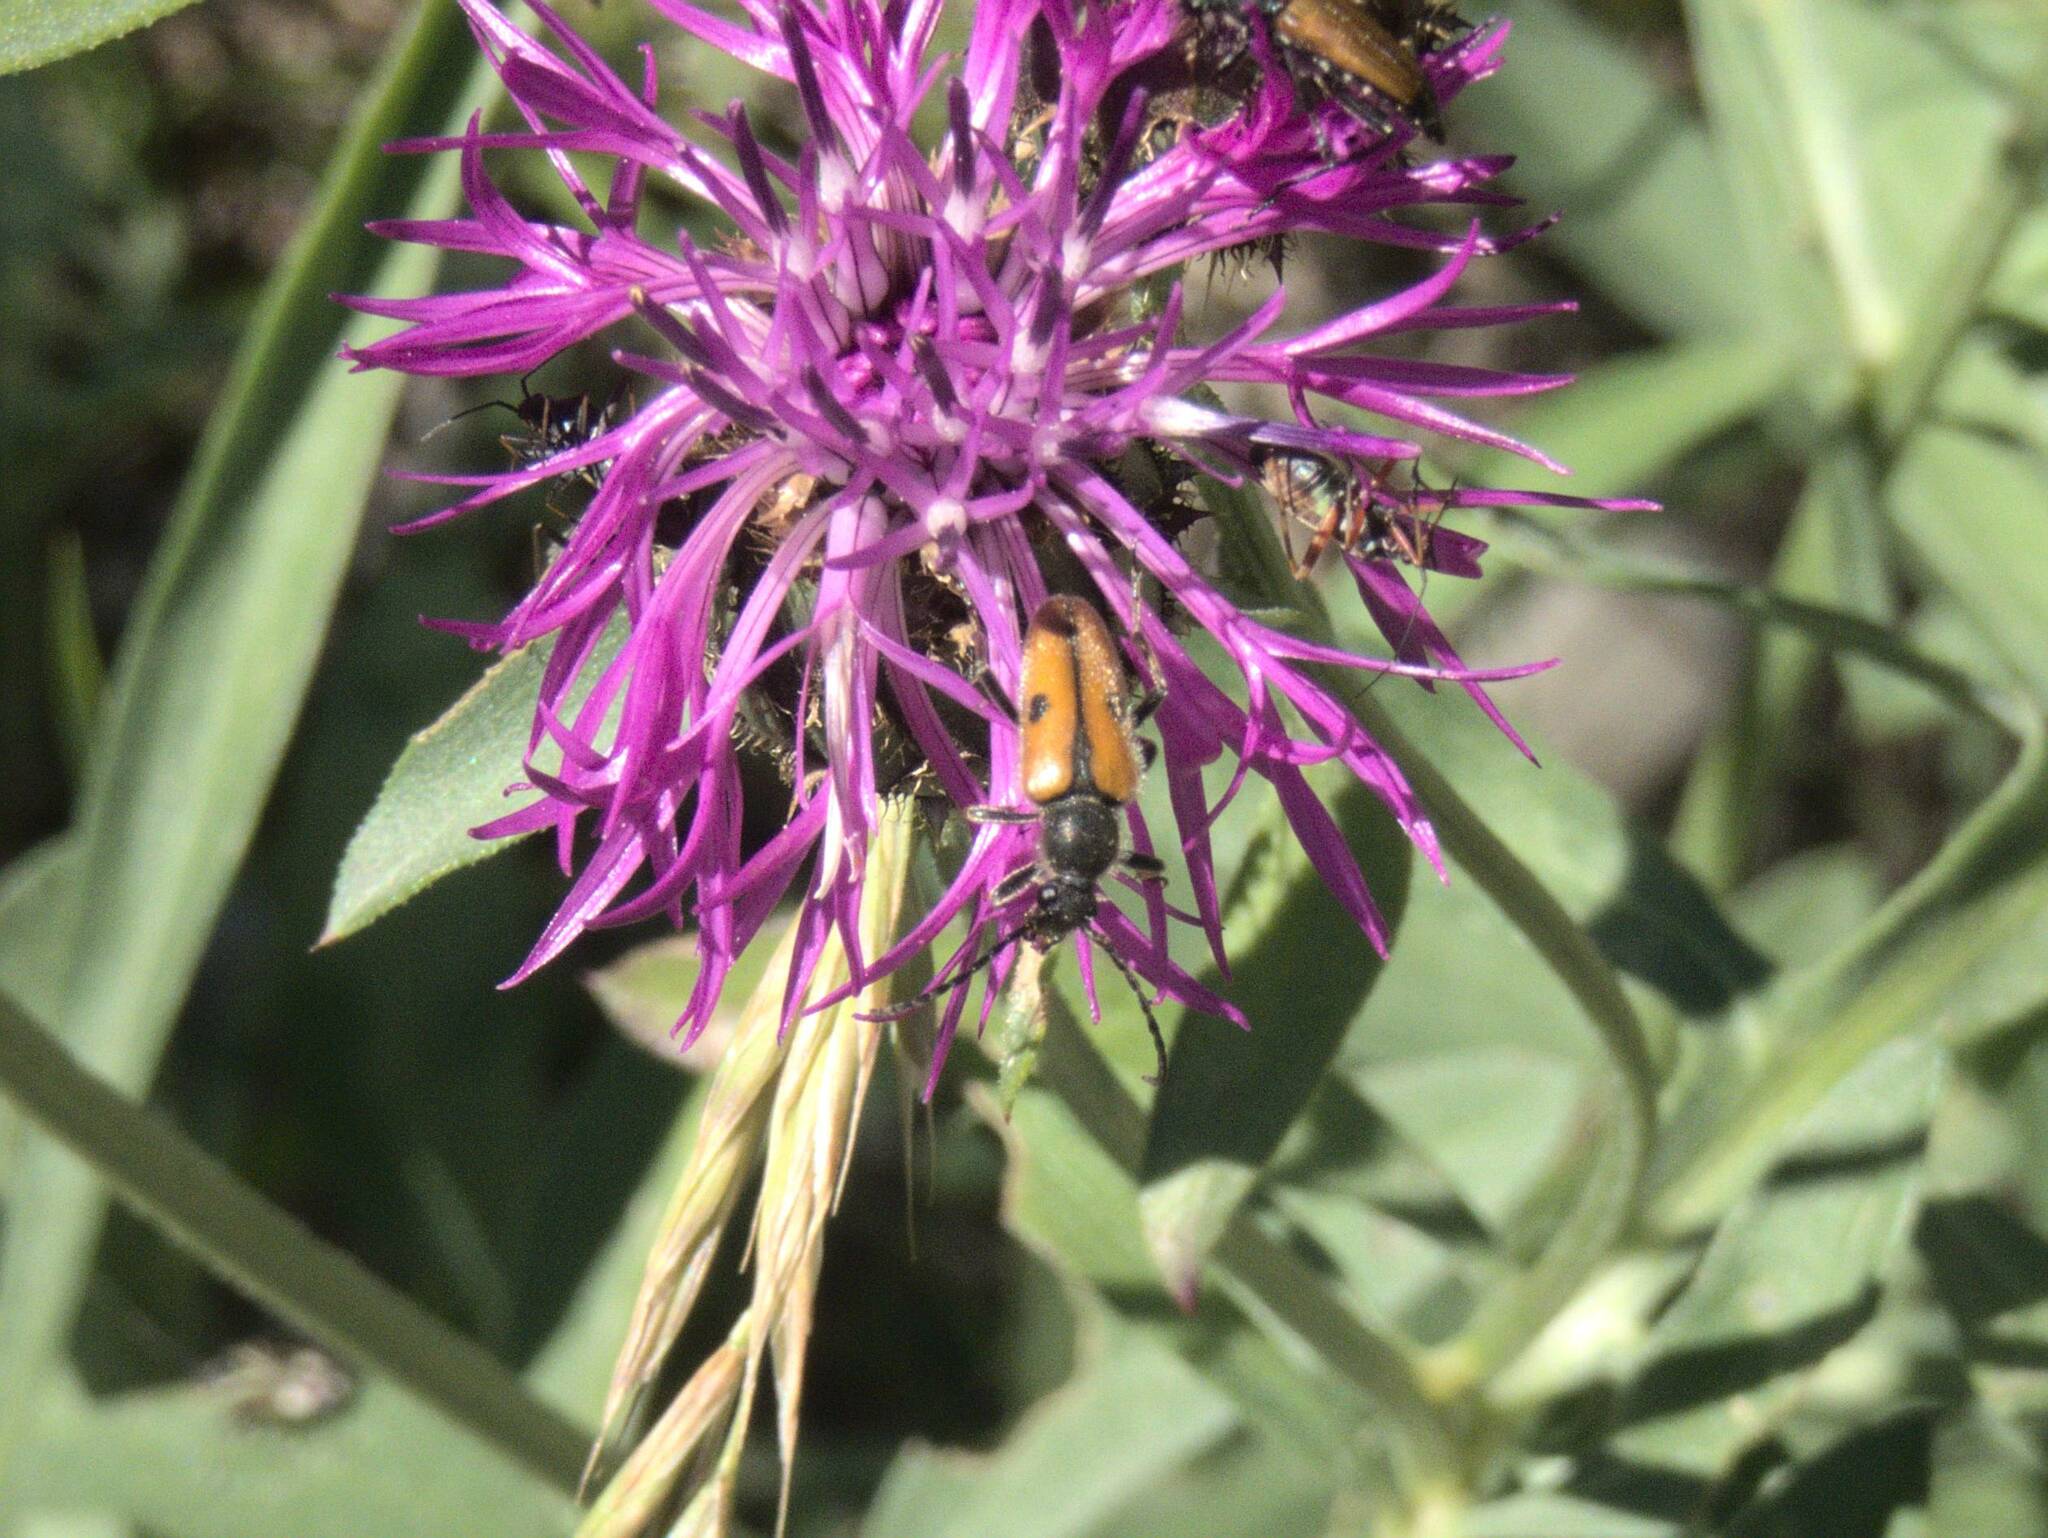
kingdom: Animalia
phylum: Arthropoda
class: Insecta
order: Coleoptera
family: Cerambycidae
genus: Vadonia
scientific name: Vadonia unipunctata
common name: Long-horned beetle
